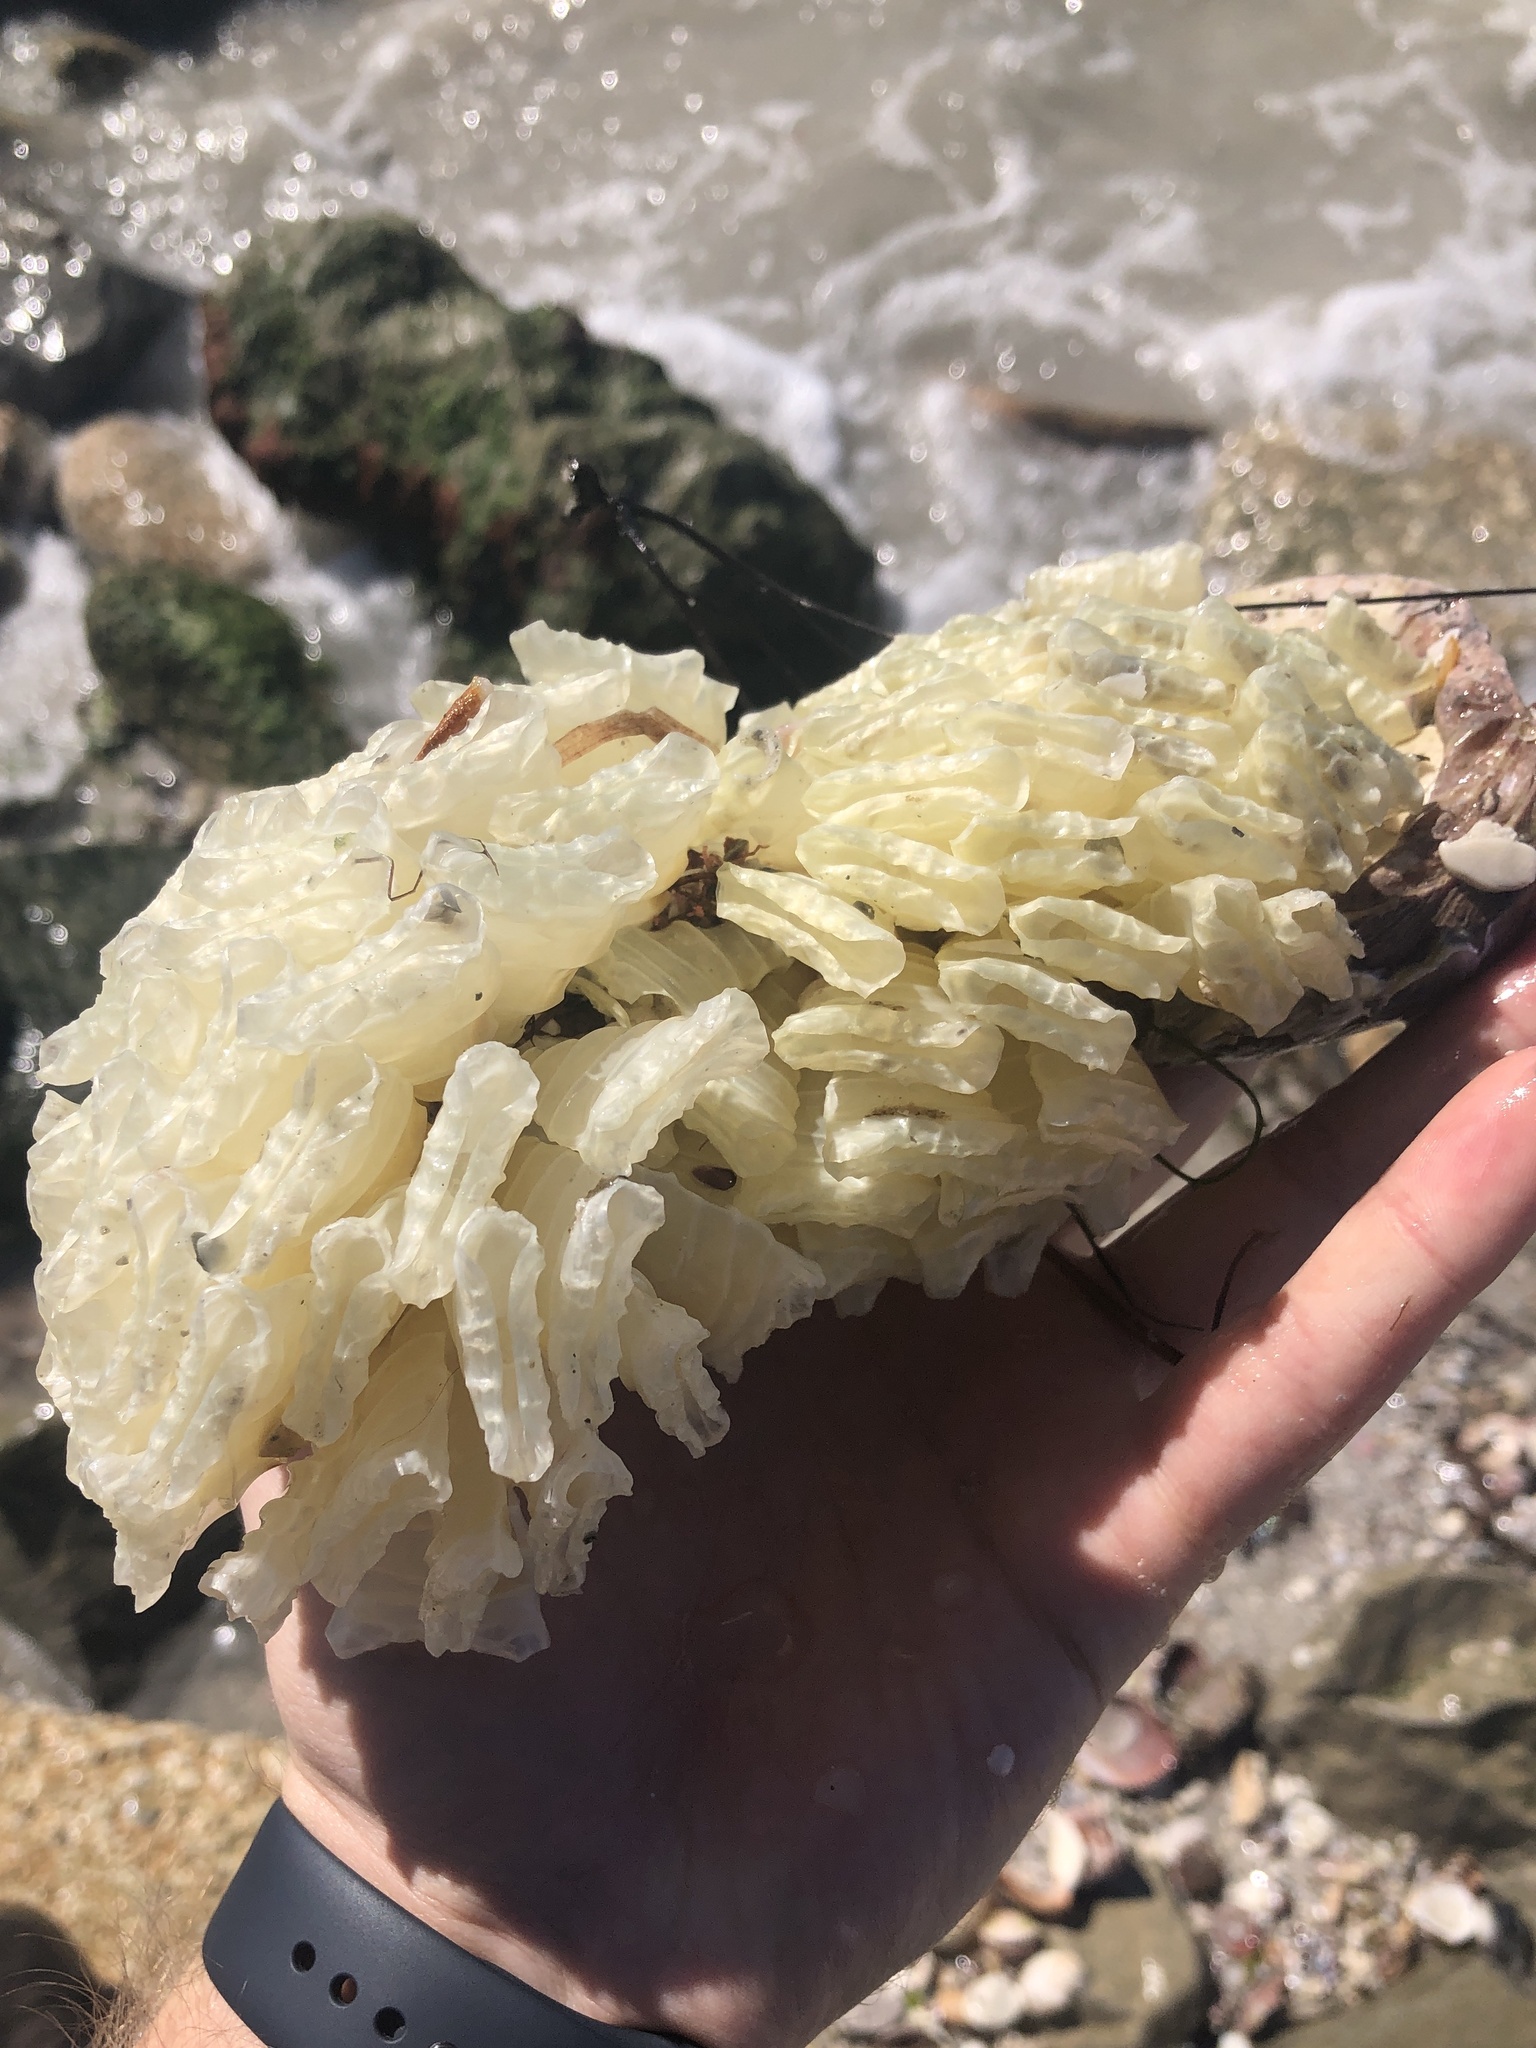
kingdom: Animalia
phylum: Mollusca
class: Gastropoda
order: Neogastropoda
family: Fasciolariidae
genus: Triplofusus
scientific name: Triplofusus giganteus
